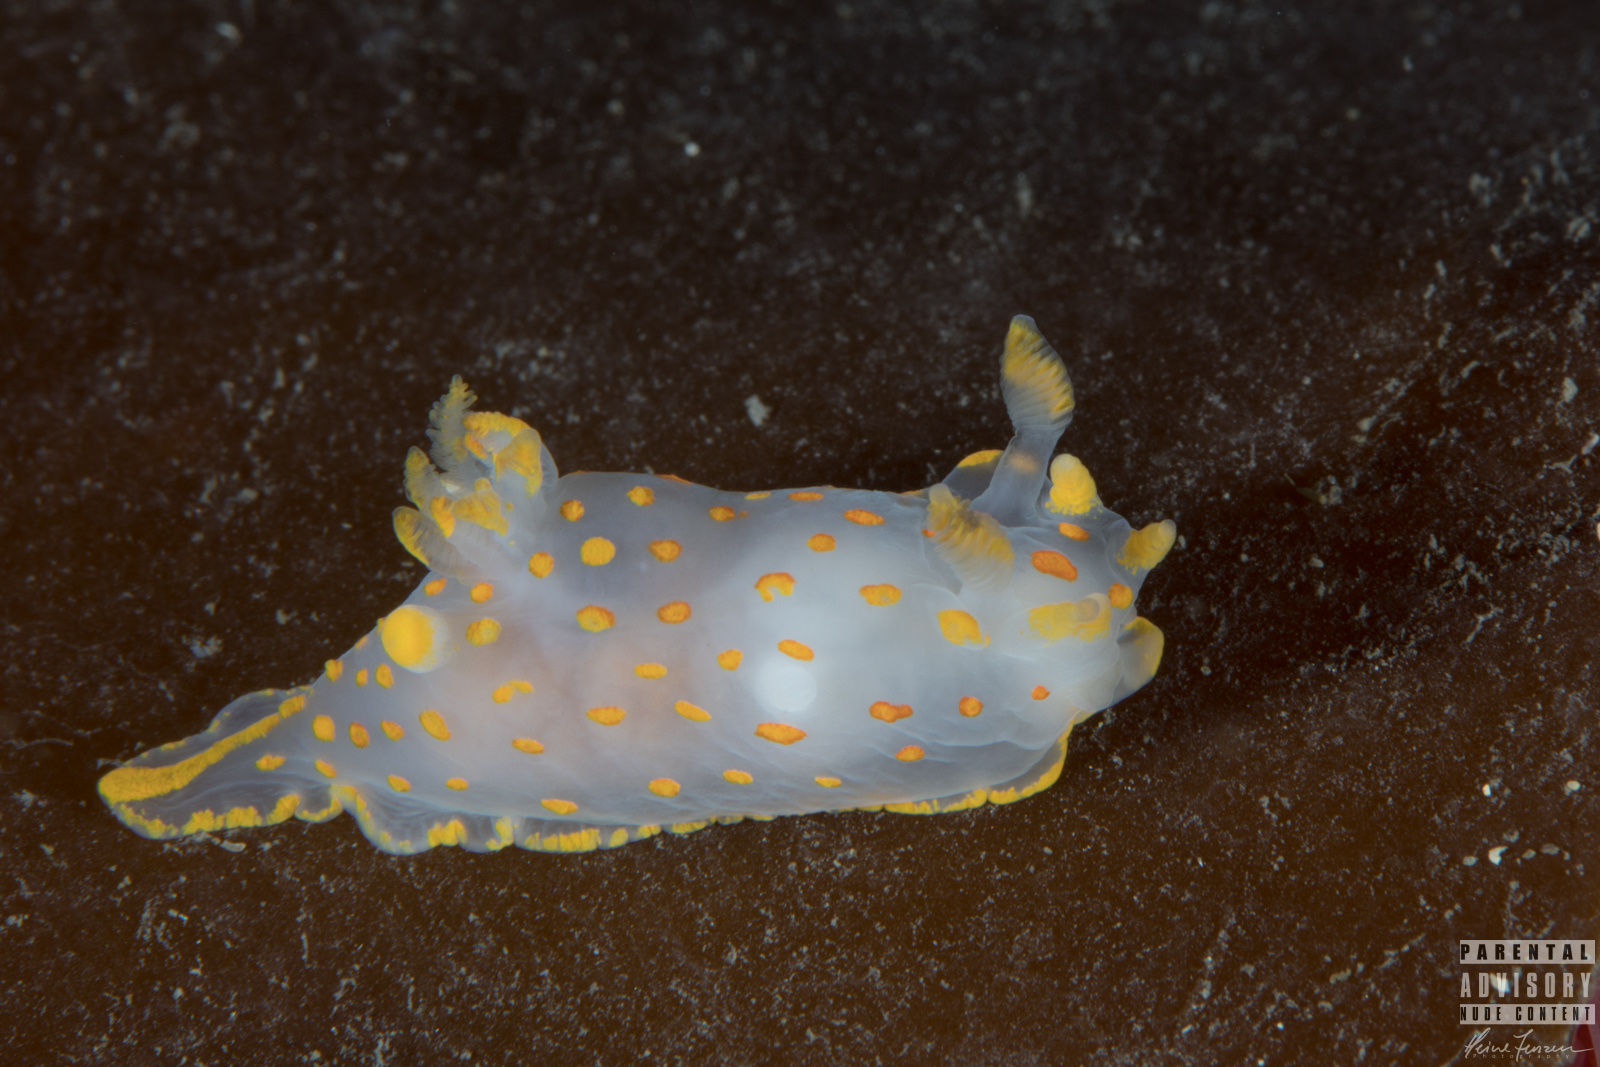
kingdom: Animalia
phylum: Mollusca
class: Gastropoda
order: Nudibranchia
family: Polyceridae
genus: Polycera
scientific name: Polycera quadrilineata
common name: Four-striped polycera
